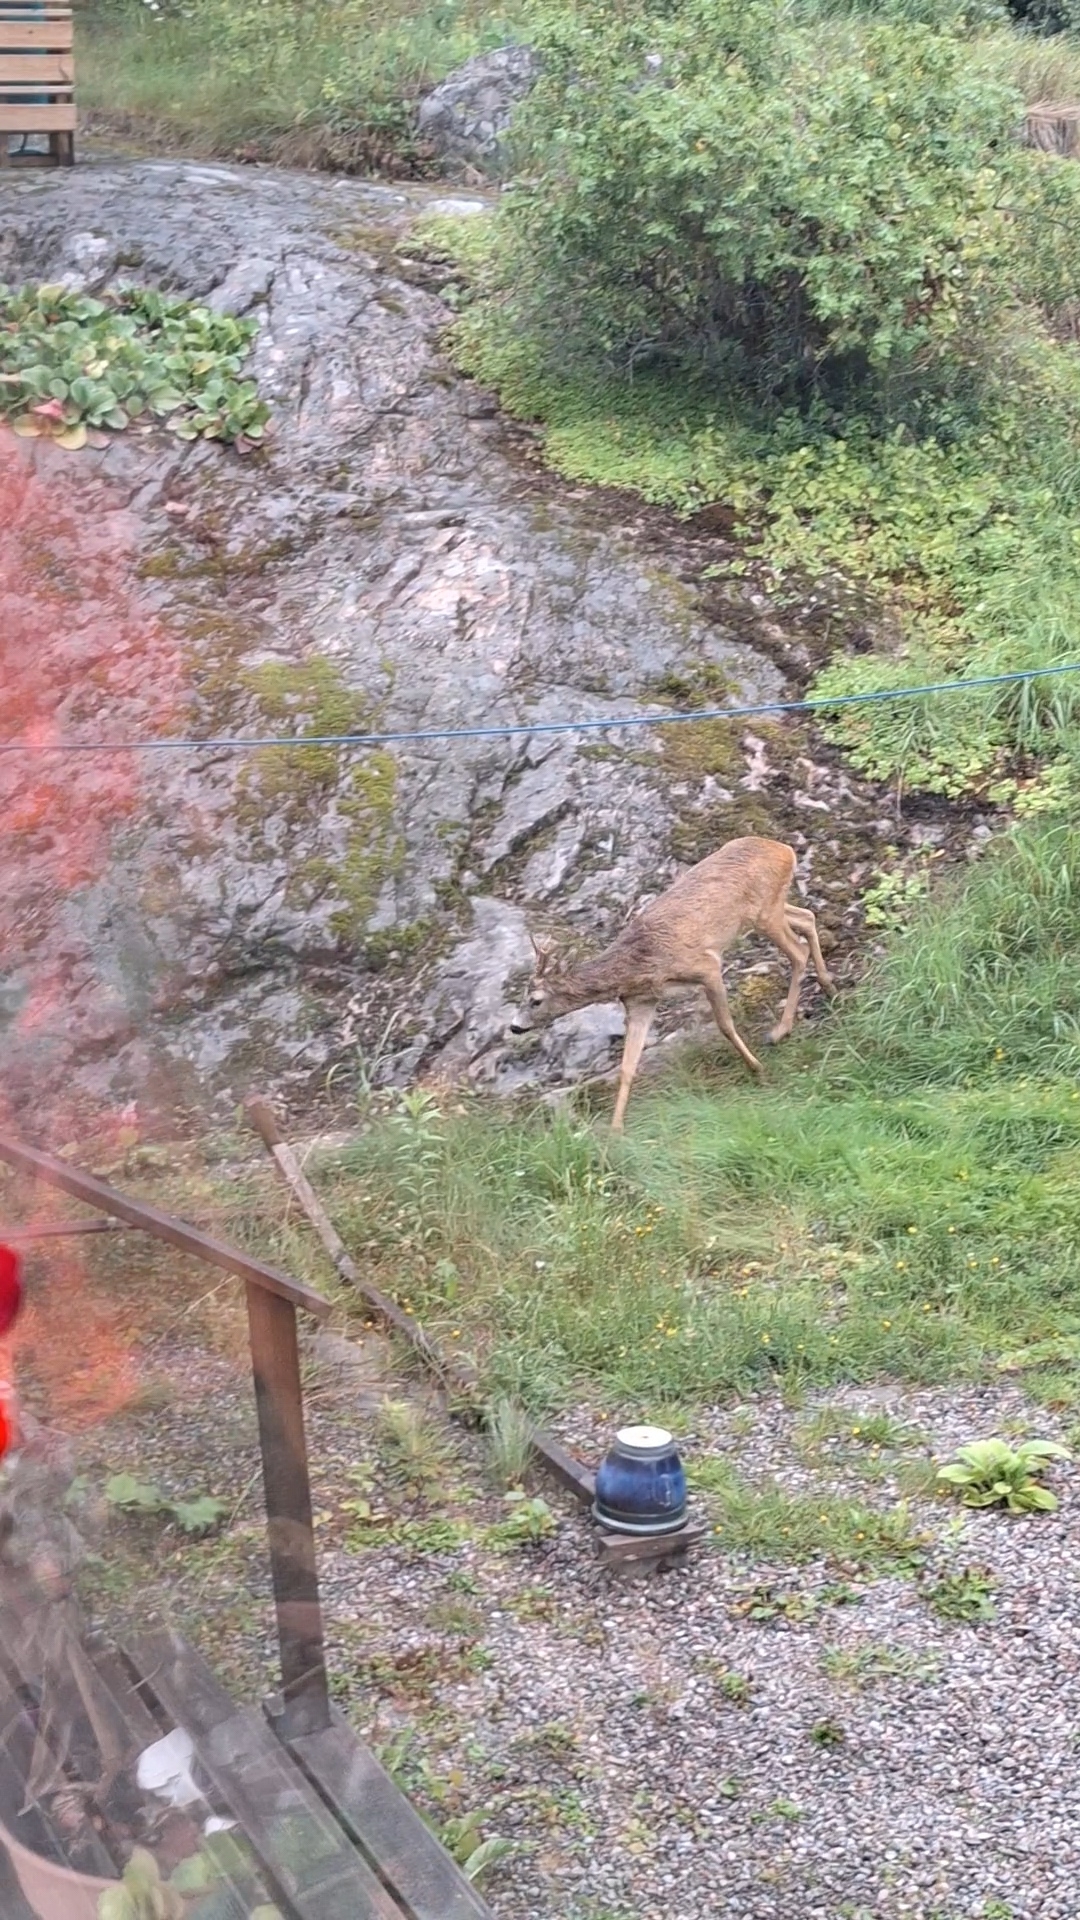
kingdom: Animalia
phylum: Chordata
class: Mammalia
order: Artiodactyla
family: Cervidae
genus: Capreolus
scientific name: Capreolus capreolus
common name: Western roe deer
